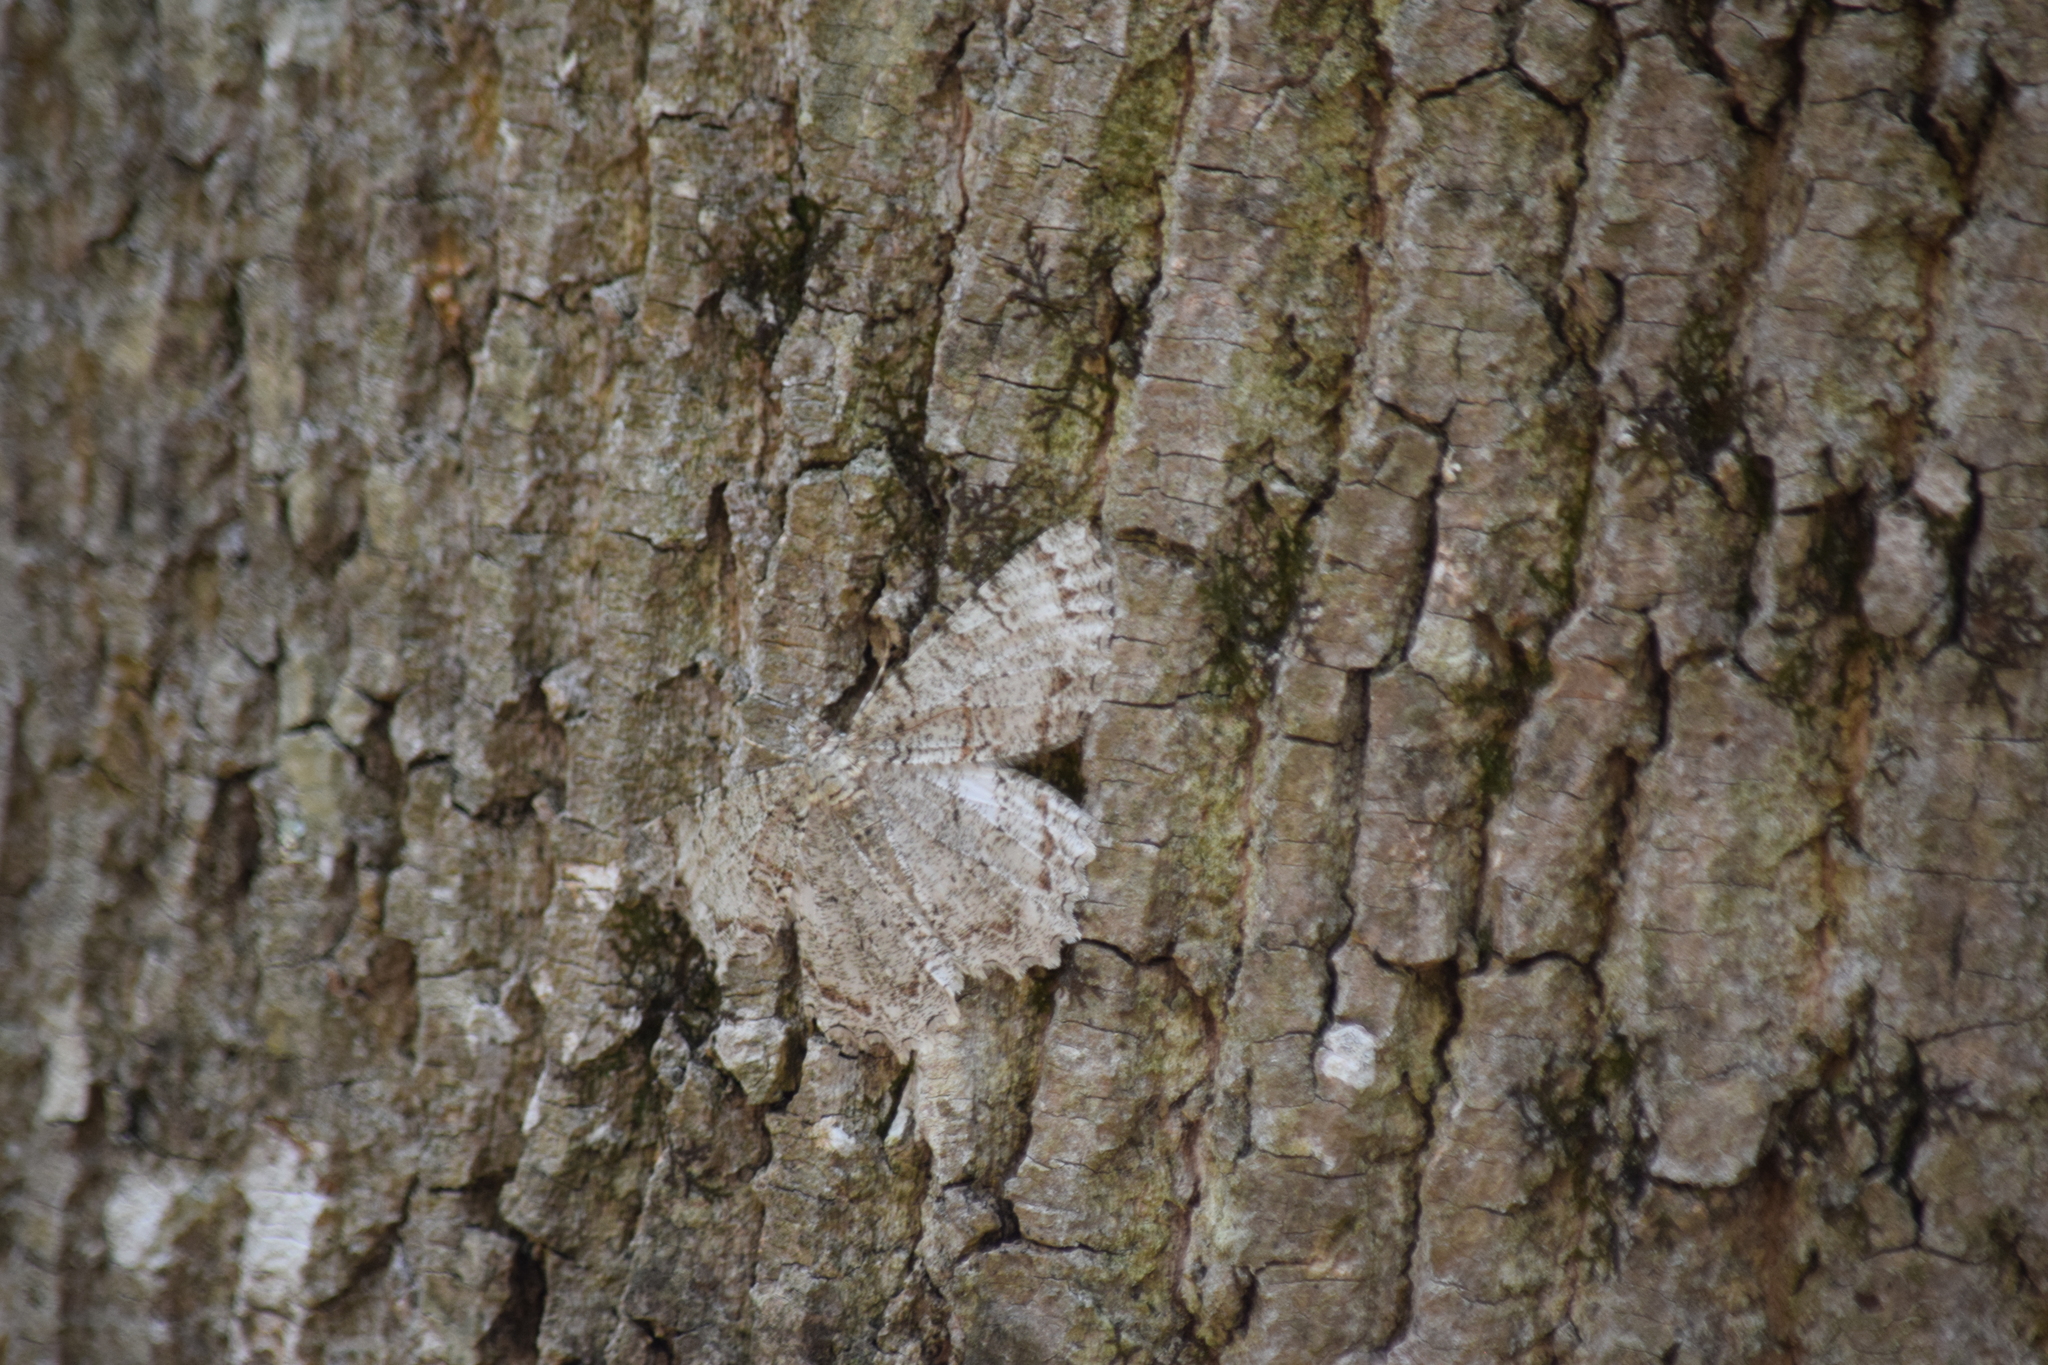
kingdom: Animalia
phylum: Arthropoda
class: Insecta
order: Lepidoptera
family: Geometridae
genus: Epimecis
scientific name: Epimecis hortaria
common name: Tulip-tree beauty
